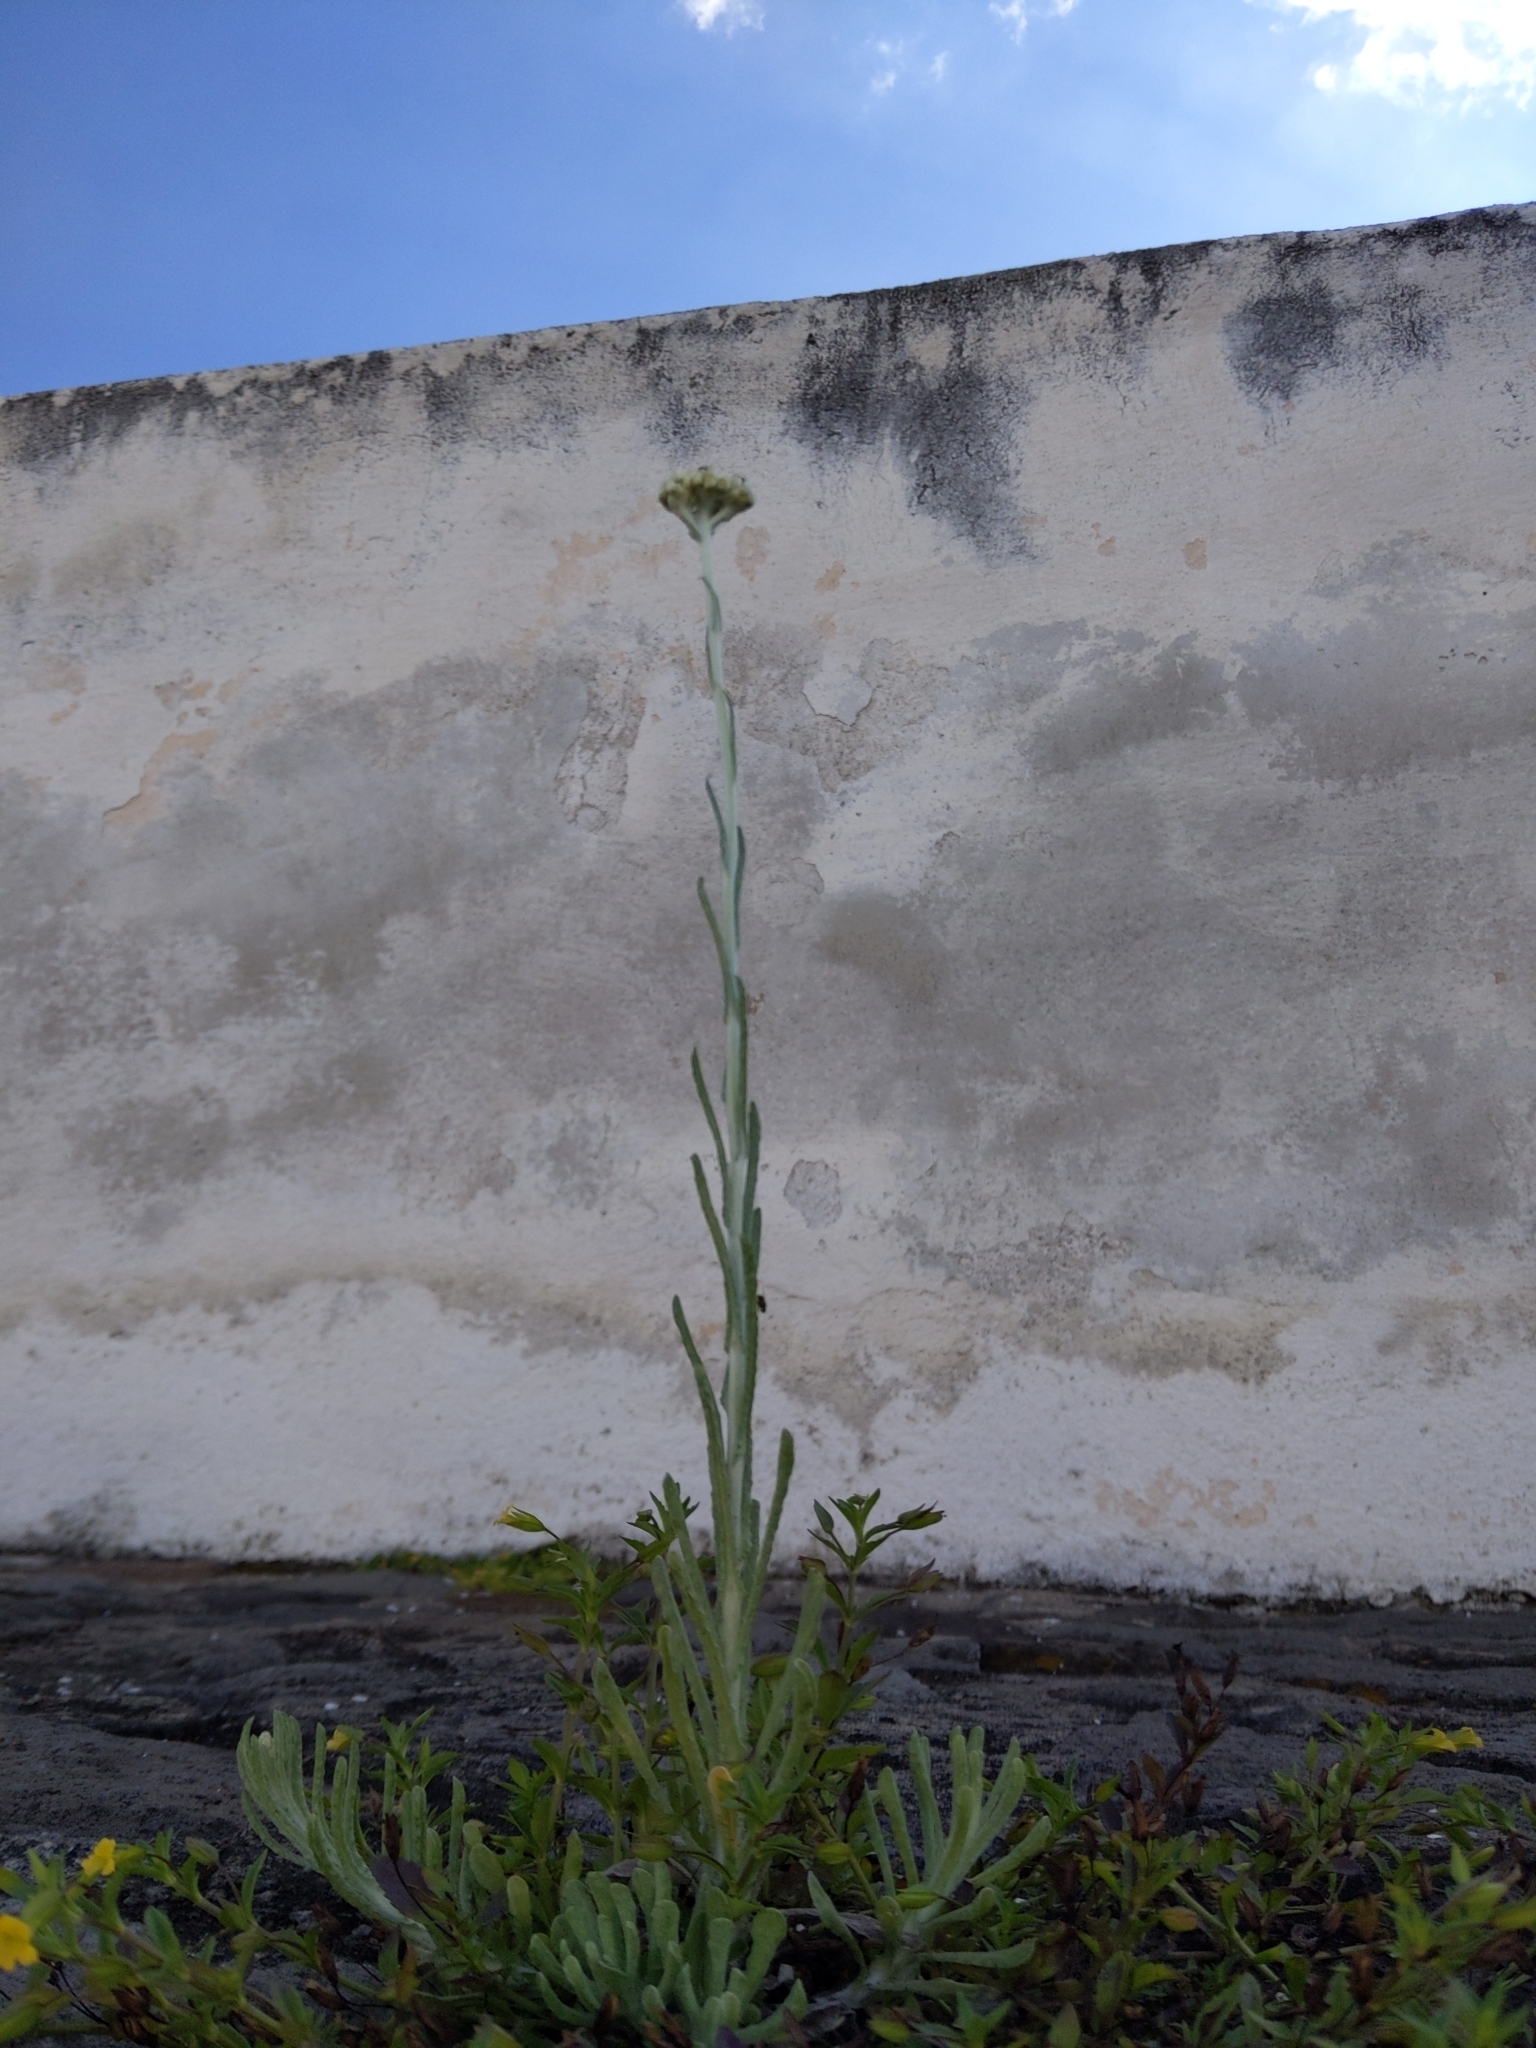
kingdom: Plantae
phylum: Tracheophyta
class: Magnoliopsida
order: Asterales
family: Asteraceae
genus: Helichrysum
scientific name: Helichrysum luteoalbum
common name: Daisy
